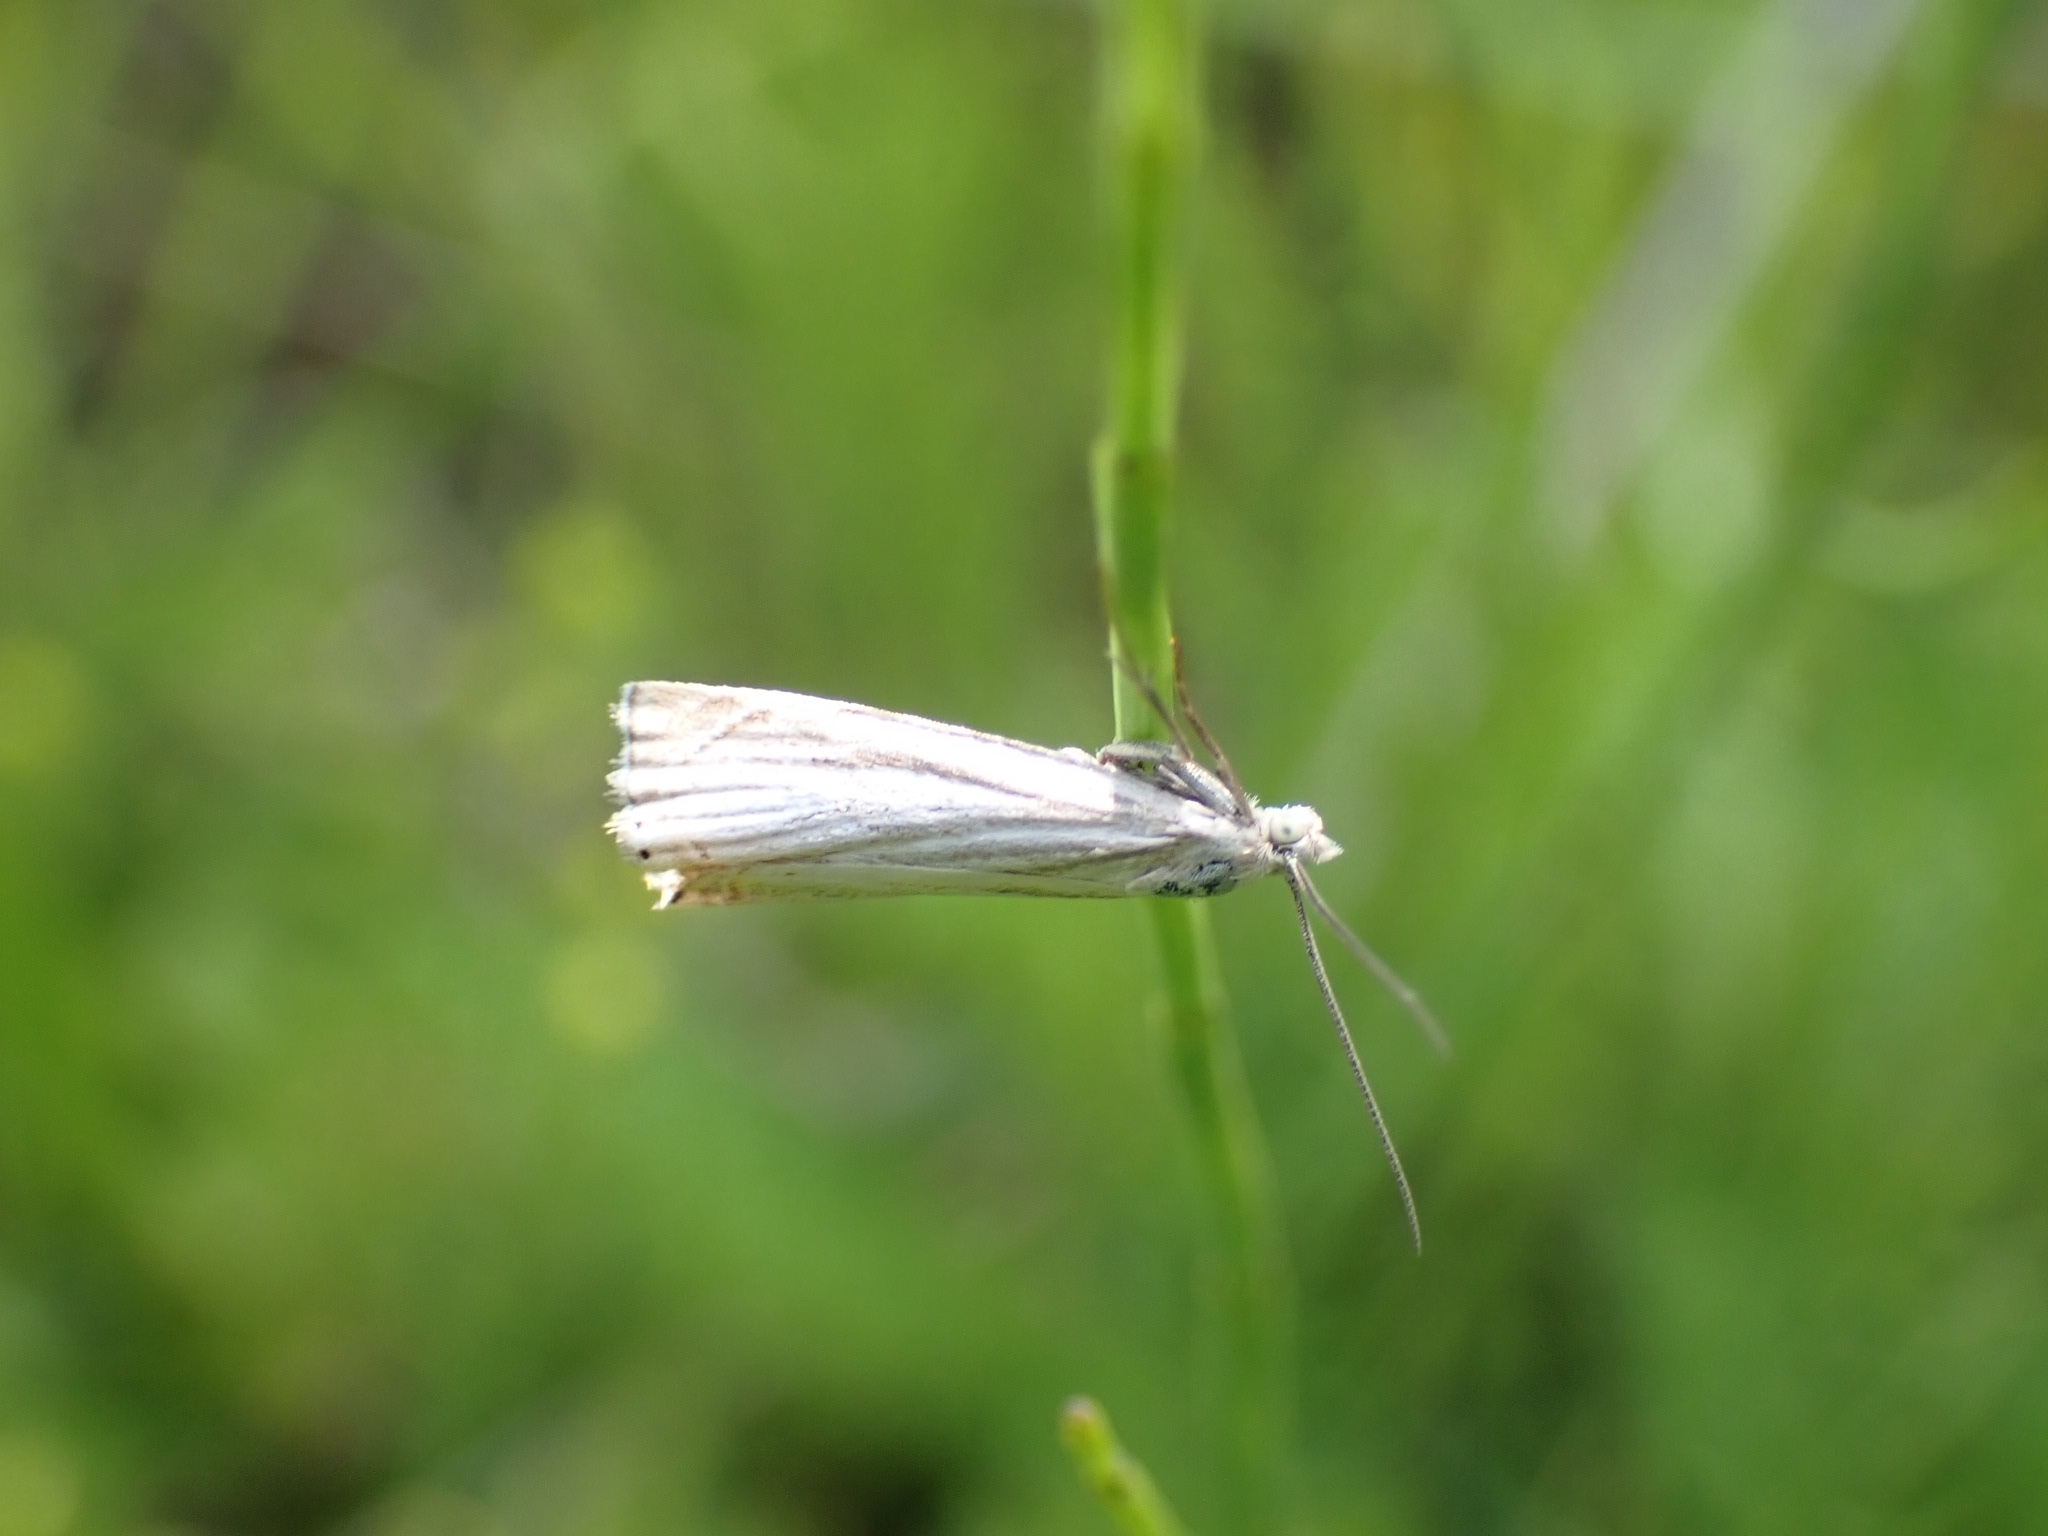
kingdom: Animalia
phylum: Arthropoda
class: Insecta
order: Lepidoptera
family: Crambidae
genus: Chrysoteuchia
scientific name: Chrysoteuchia culmella
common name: Garden grass-veneer
